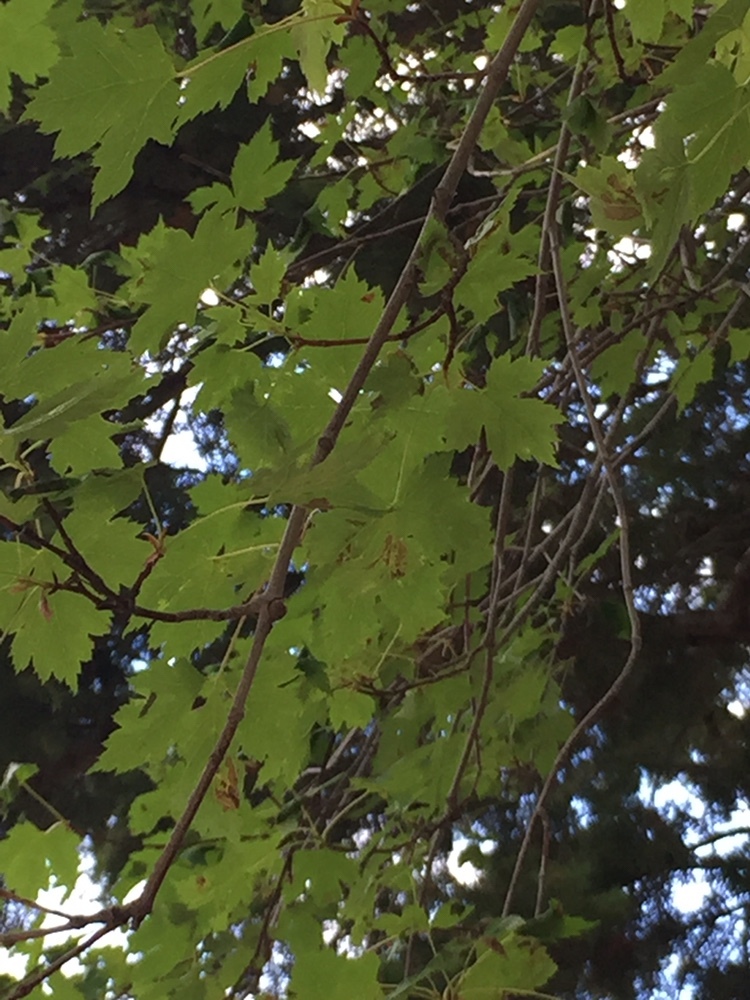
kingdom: Plantae
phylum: Tracheophyta
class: Magnoliopsida
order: Sapindales
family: Sapindaceae
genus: Acer
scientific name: Acer glabrum
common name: Rocky mountain maple
